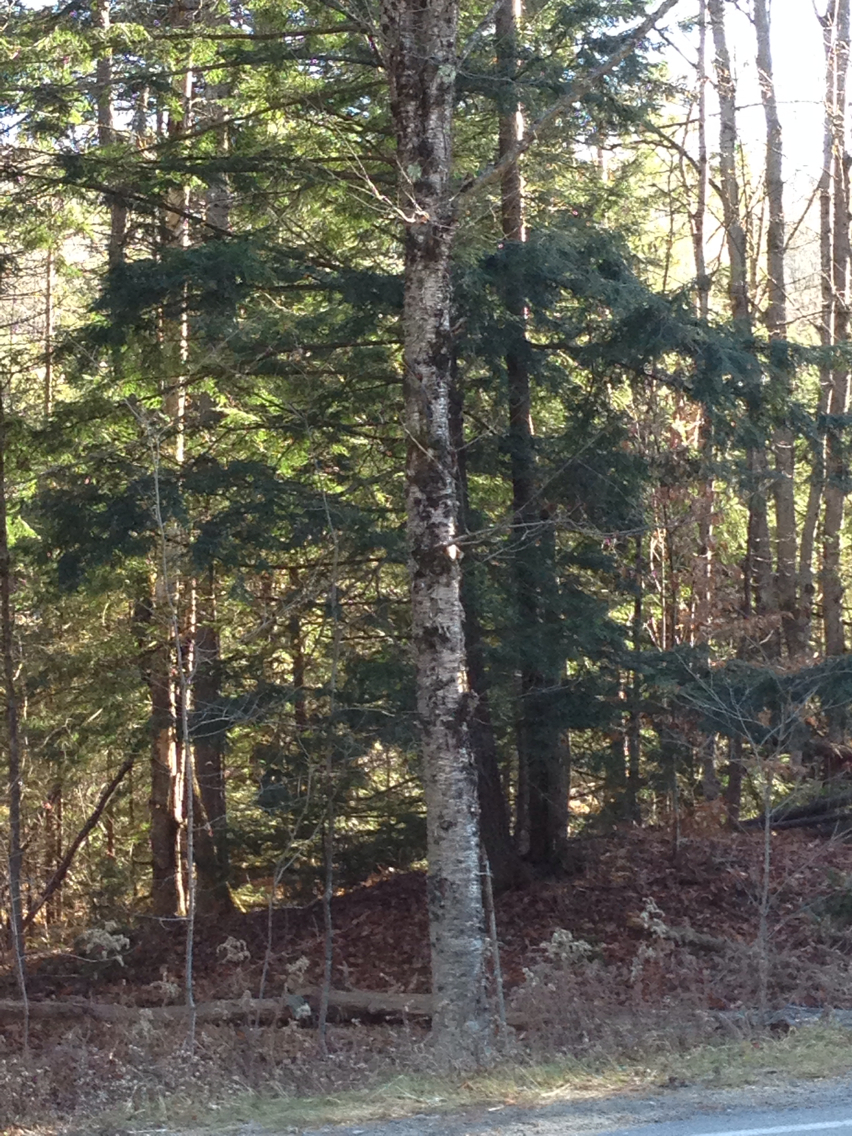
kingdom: Plantae
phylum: Tracheophyta
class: Magnoliopsida
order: Fagales
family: Betulaceae
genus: Betula
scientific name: Betula alleghaniensis
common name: Yellow birch
